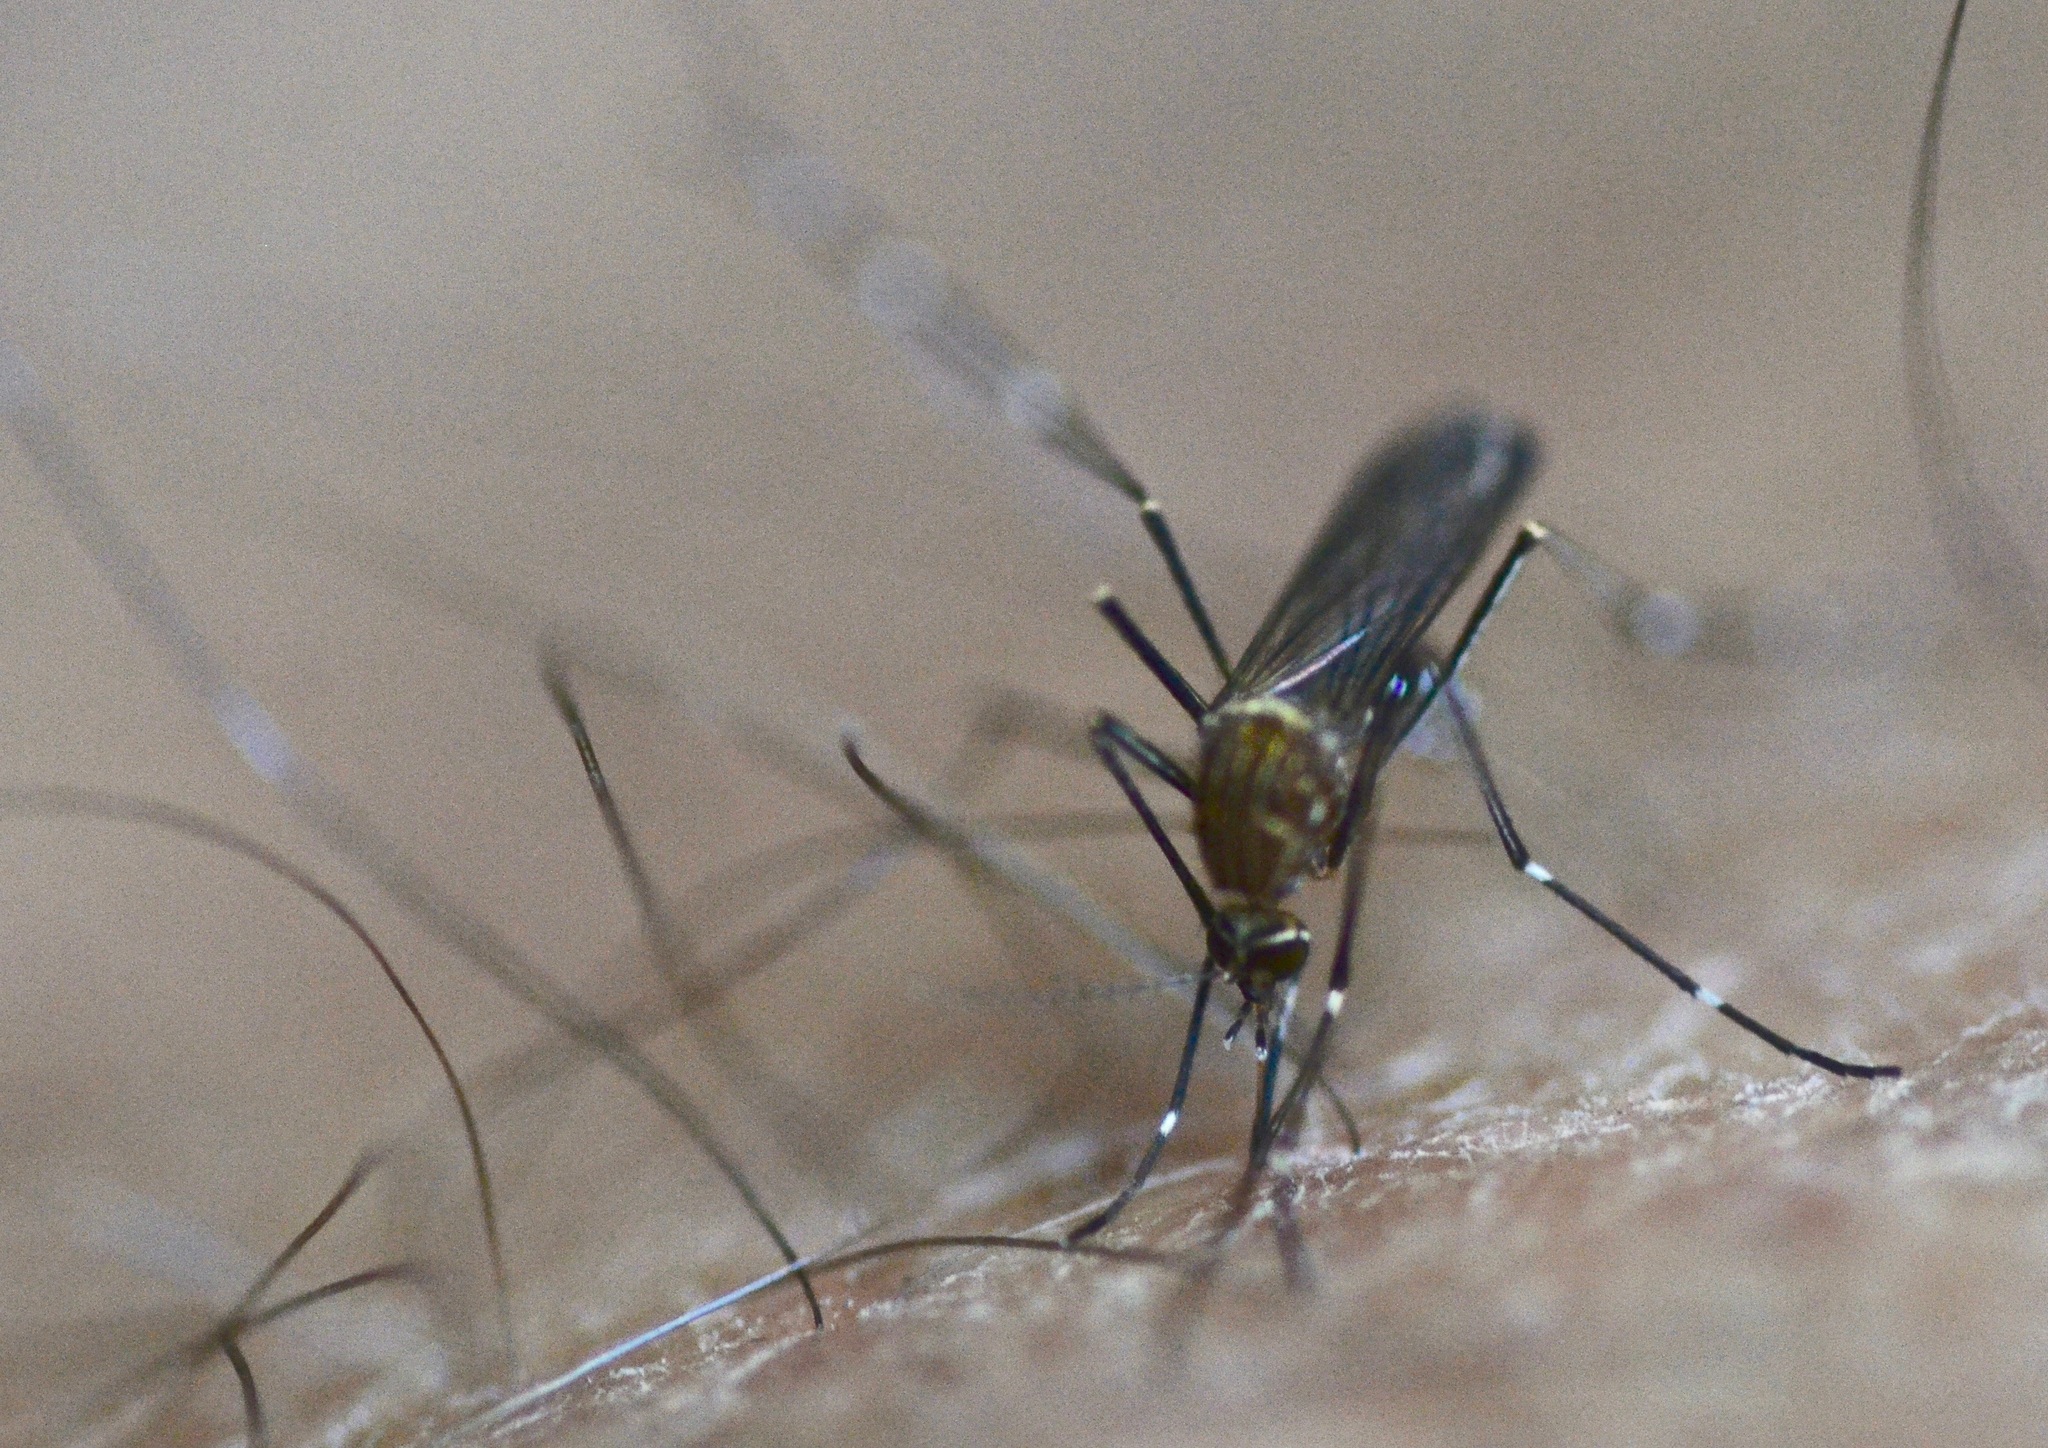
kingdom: Animalia
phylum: Arthropoda
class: Insecta
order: Diptera
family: Culicidae
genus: Aedes
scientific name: Aedes notoscriptus
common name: Australian backyard mosquito
